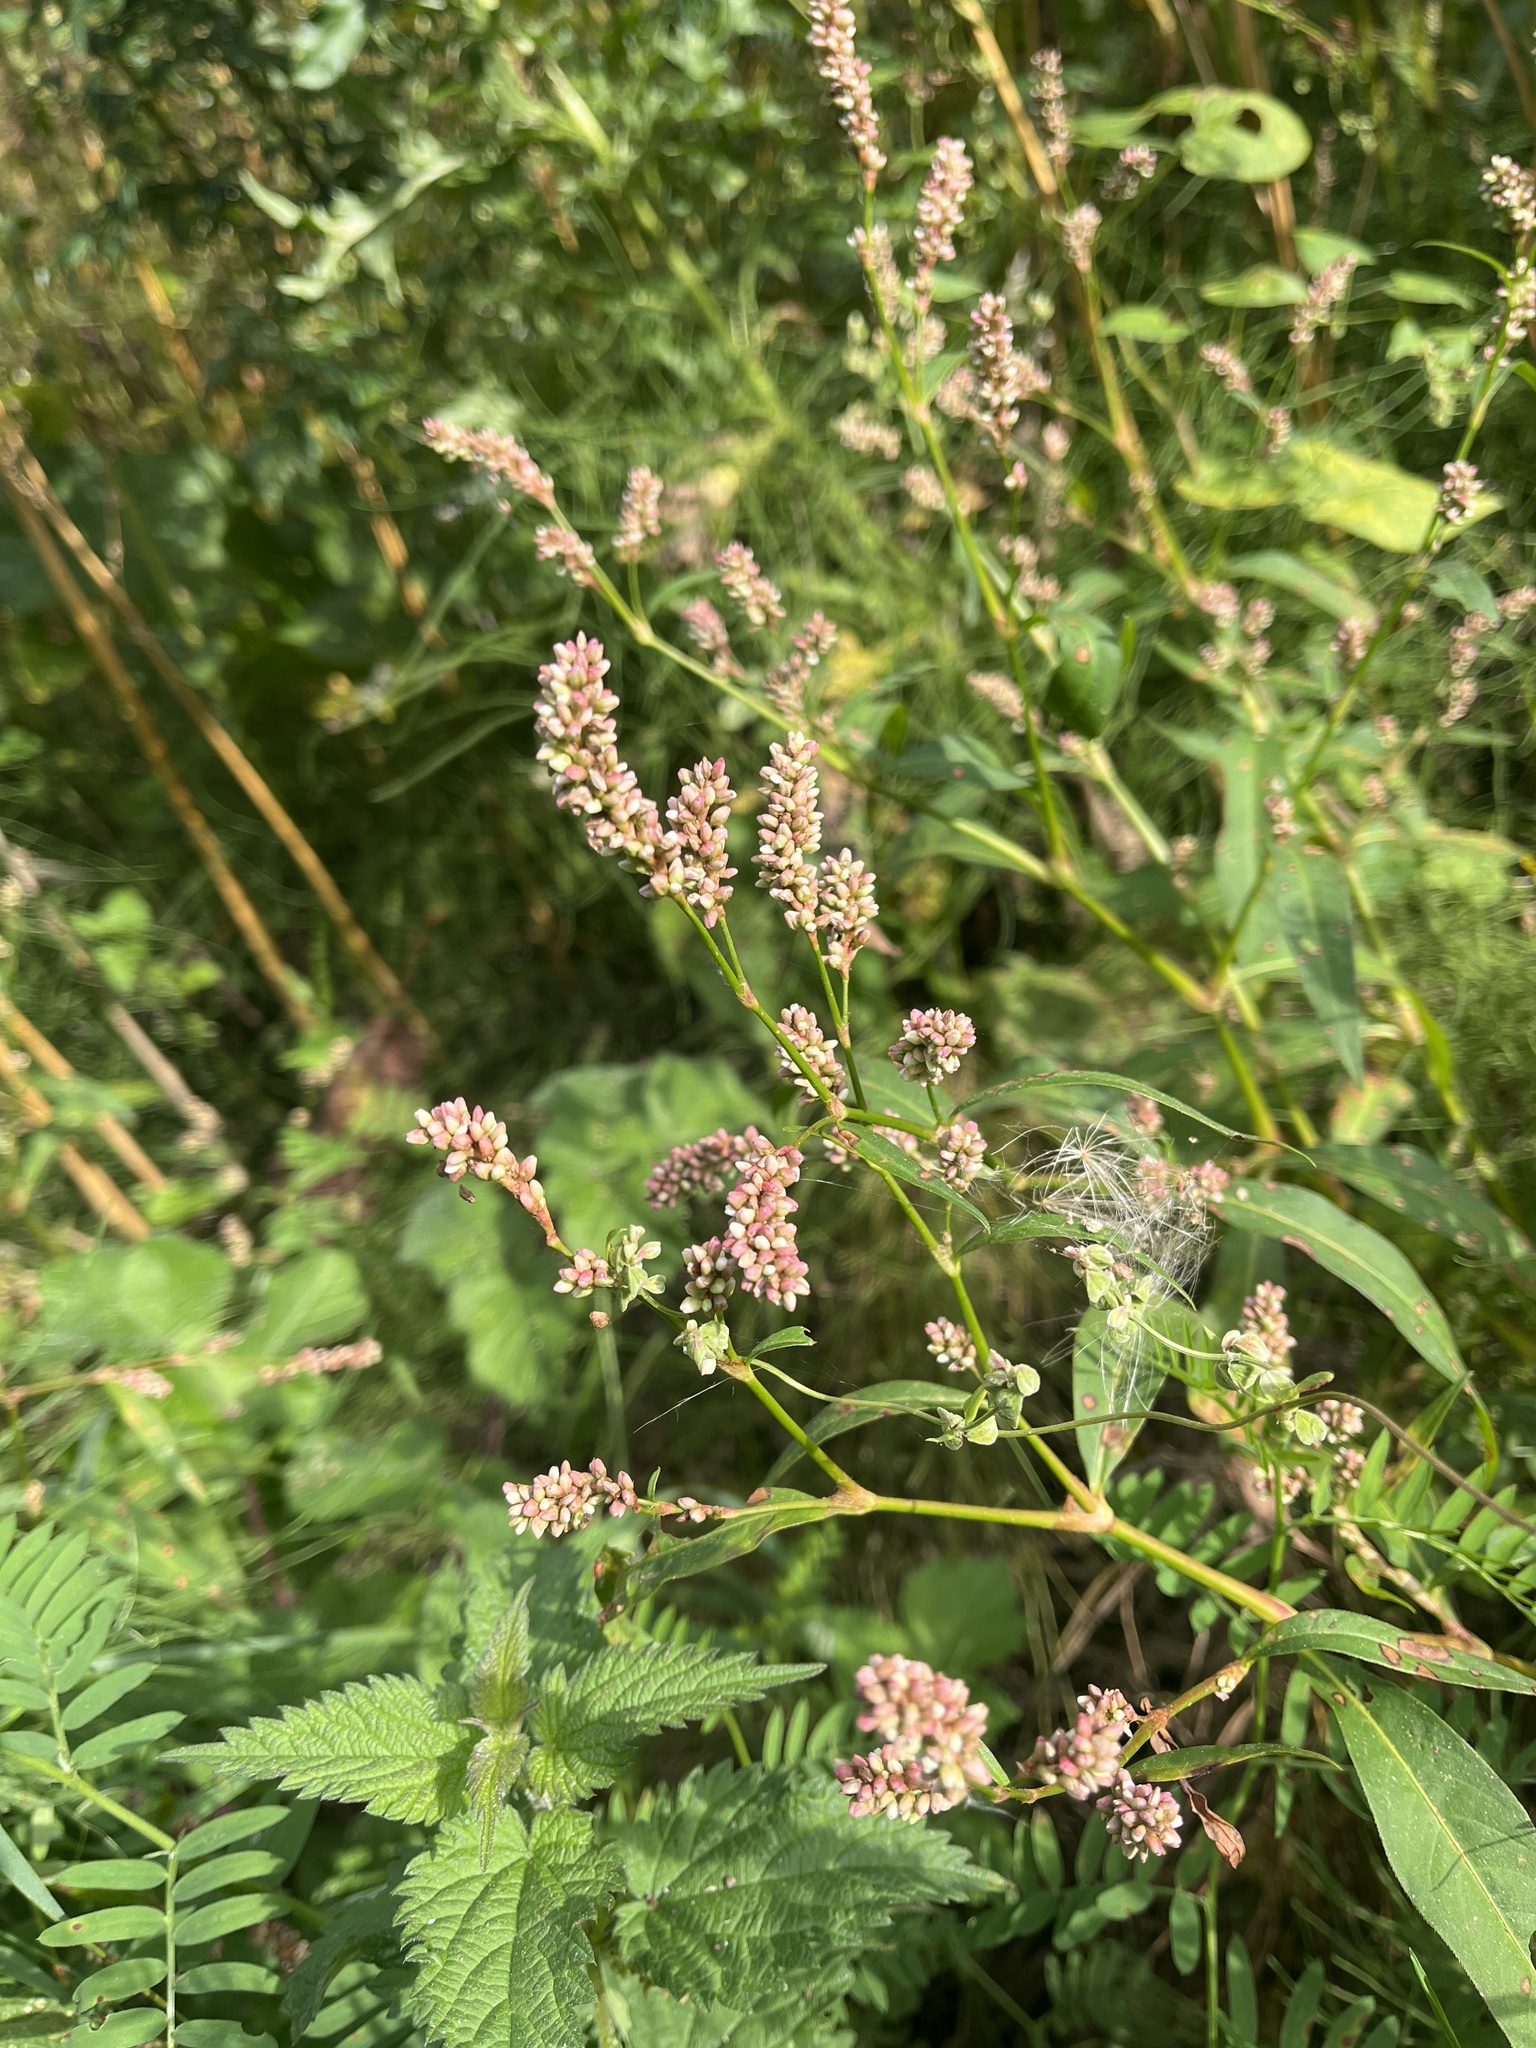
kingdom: Plantae
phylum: Tracheophyta
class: Magnoliopsida
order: Caryophyllales
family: Polygonaceae
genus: Persicaria
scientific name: Persicaria maculosa
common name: Redshank
